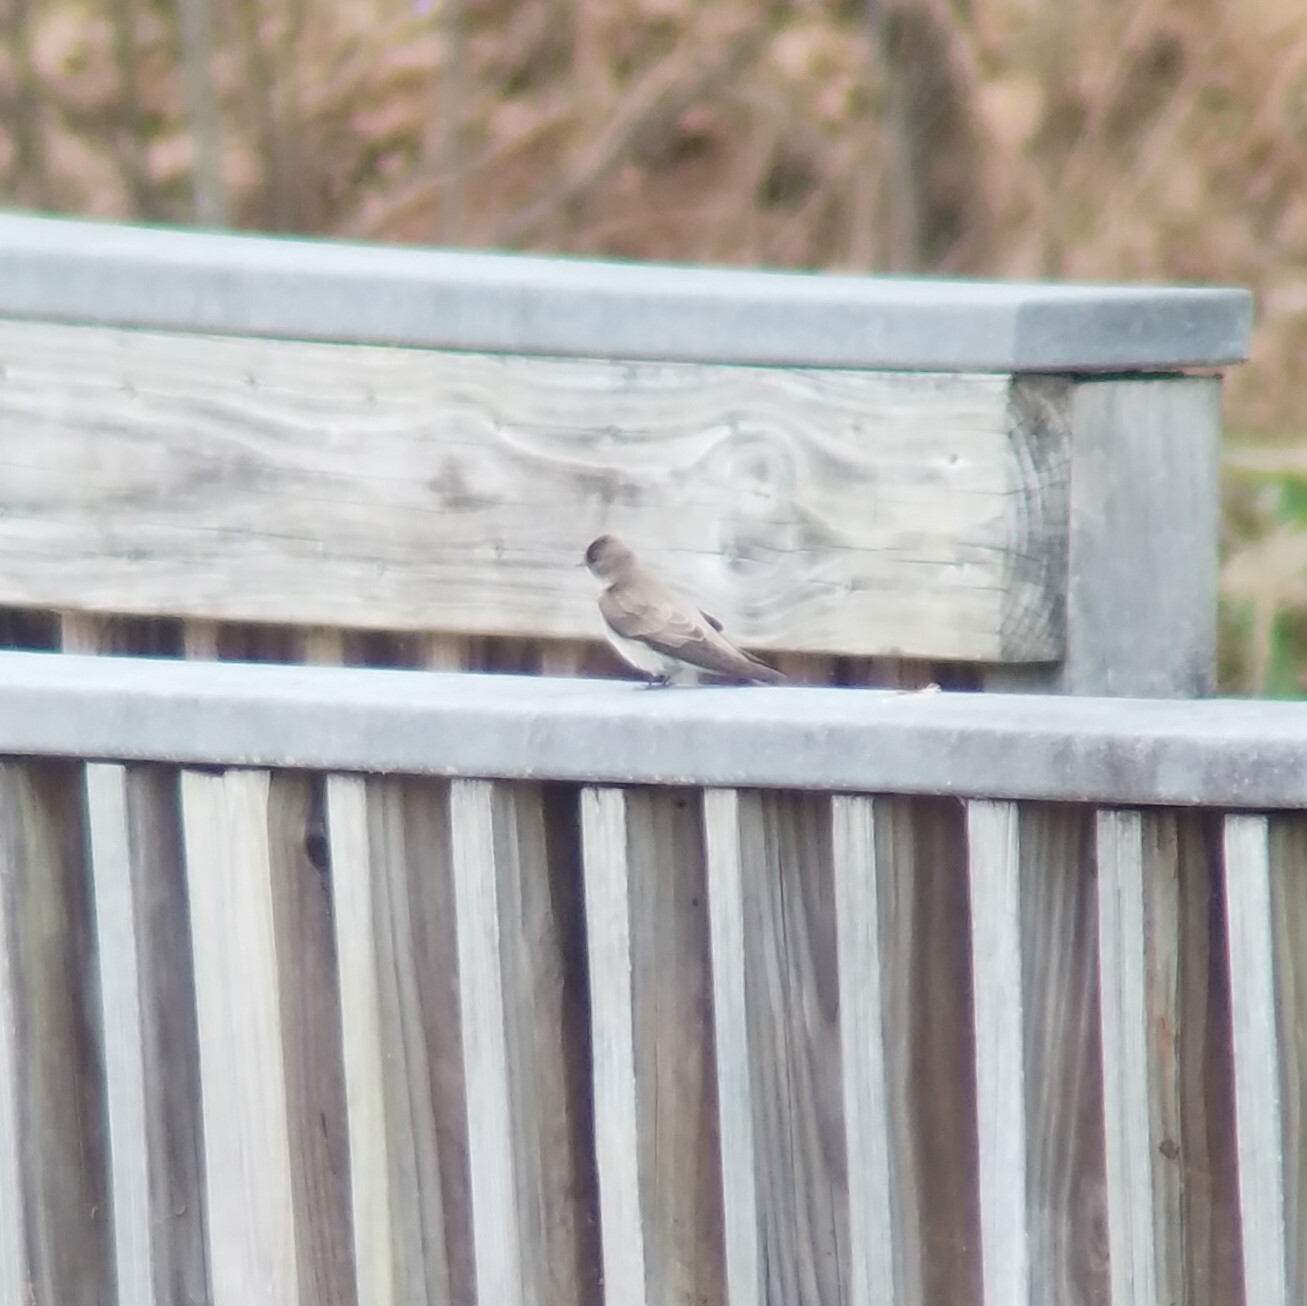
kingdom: Animalia
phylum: Chordata
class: Aves
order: Passeriformes
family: Hirundinidae
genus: Stelgidopteryx
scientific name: Stelgidopteryx serripennis
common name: Northern rough-winged swallow
